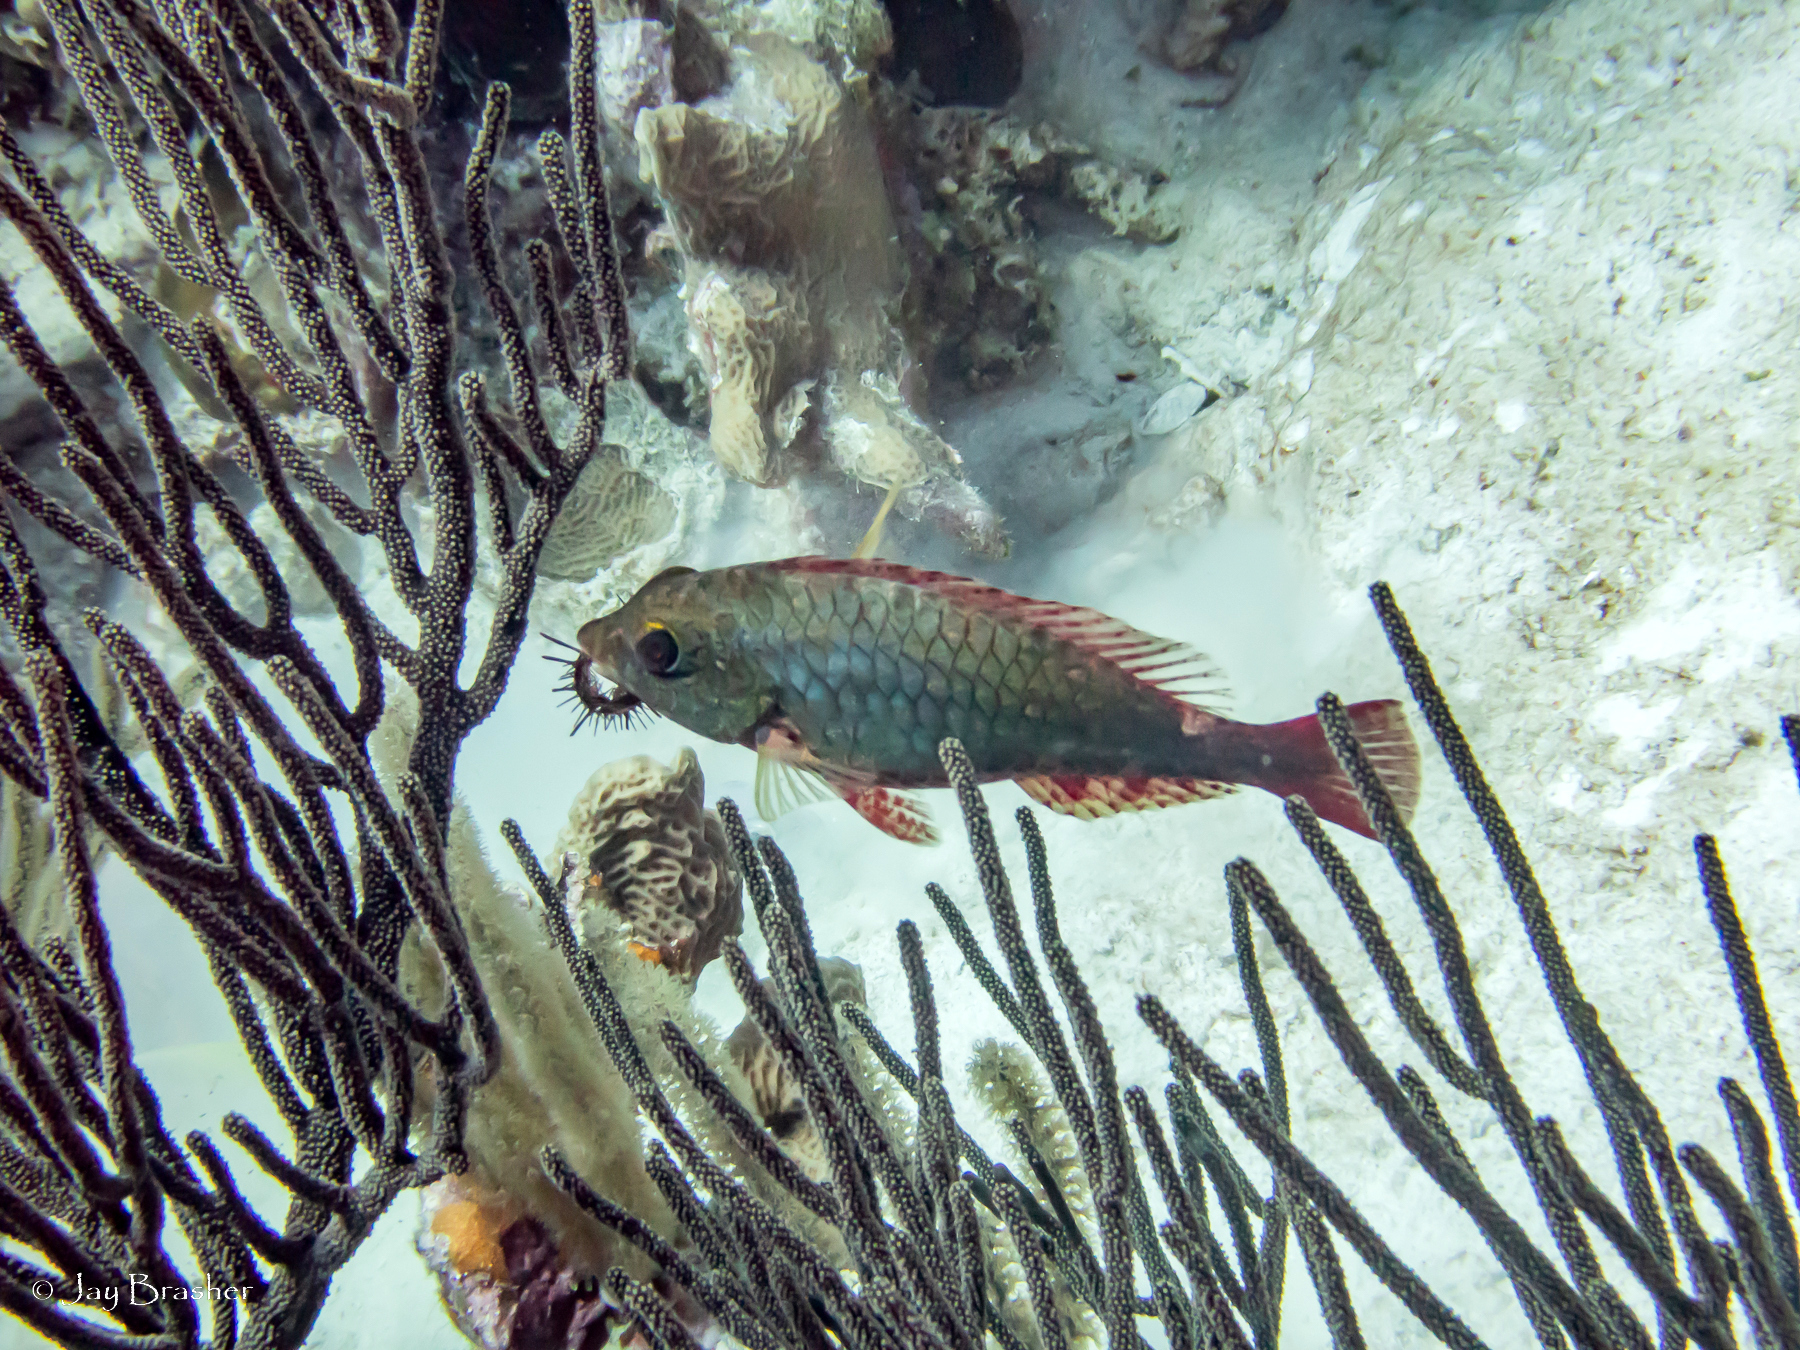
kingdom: Animalia
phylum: Chordata
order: Perciformes
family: Scaridae
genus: Sparisoma
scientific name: Sparisoma aurofrenatum
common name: Redband parrotfish
